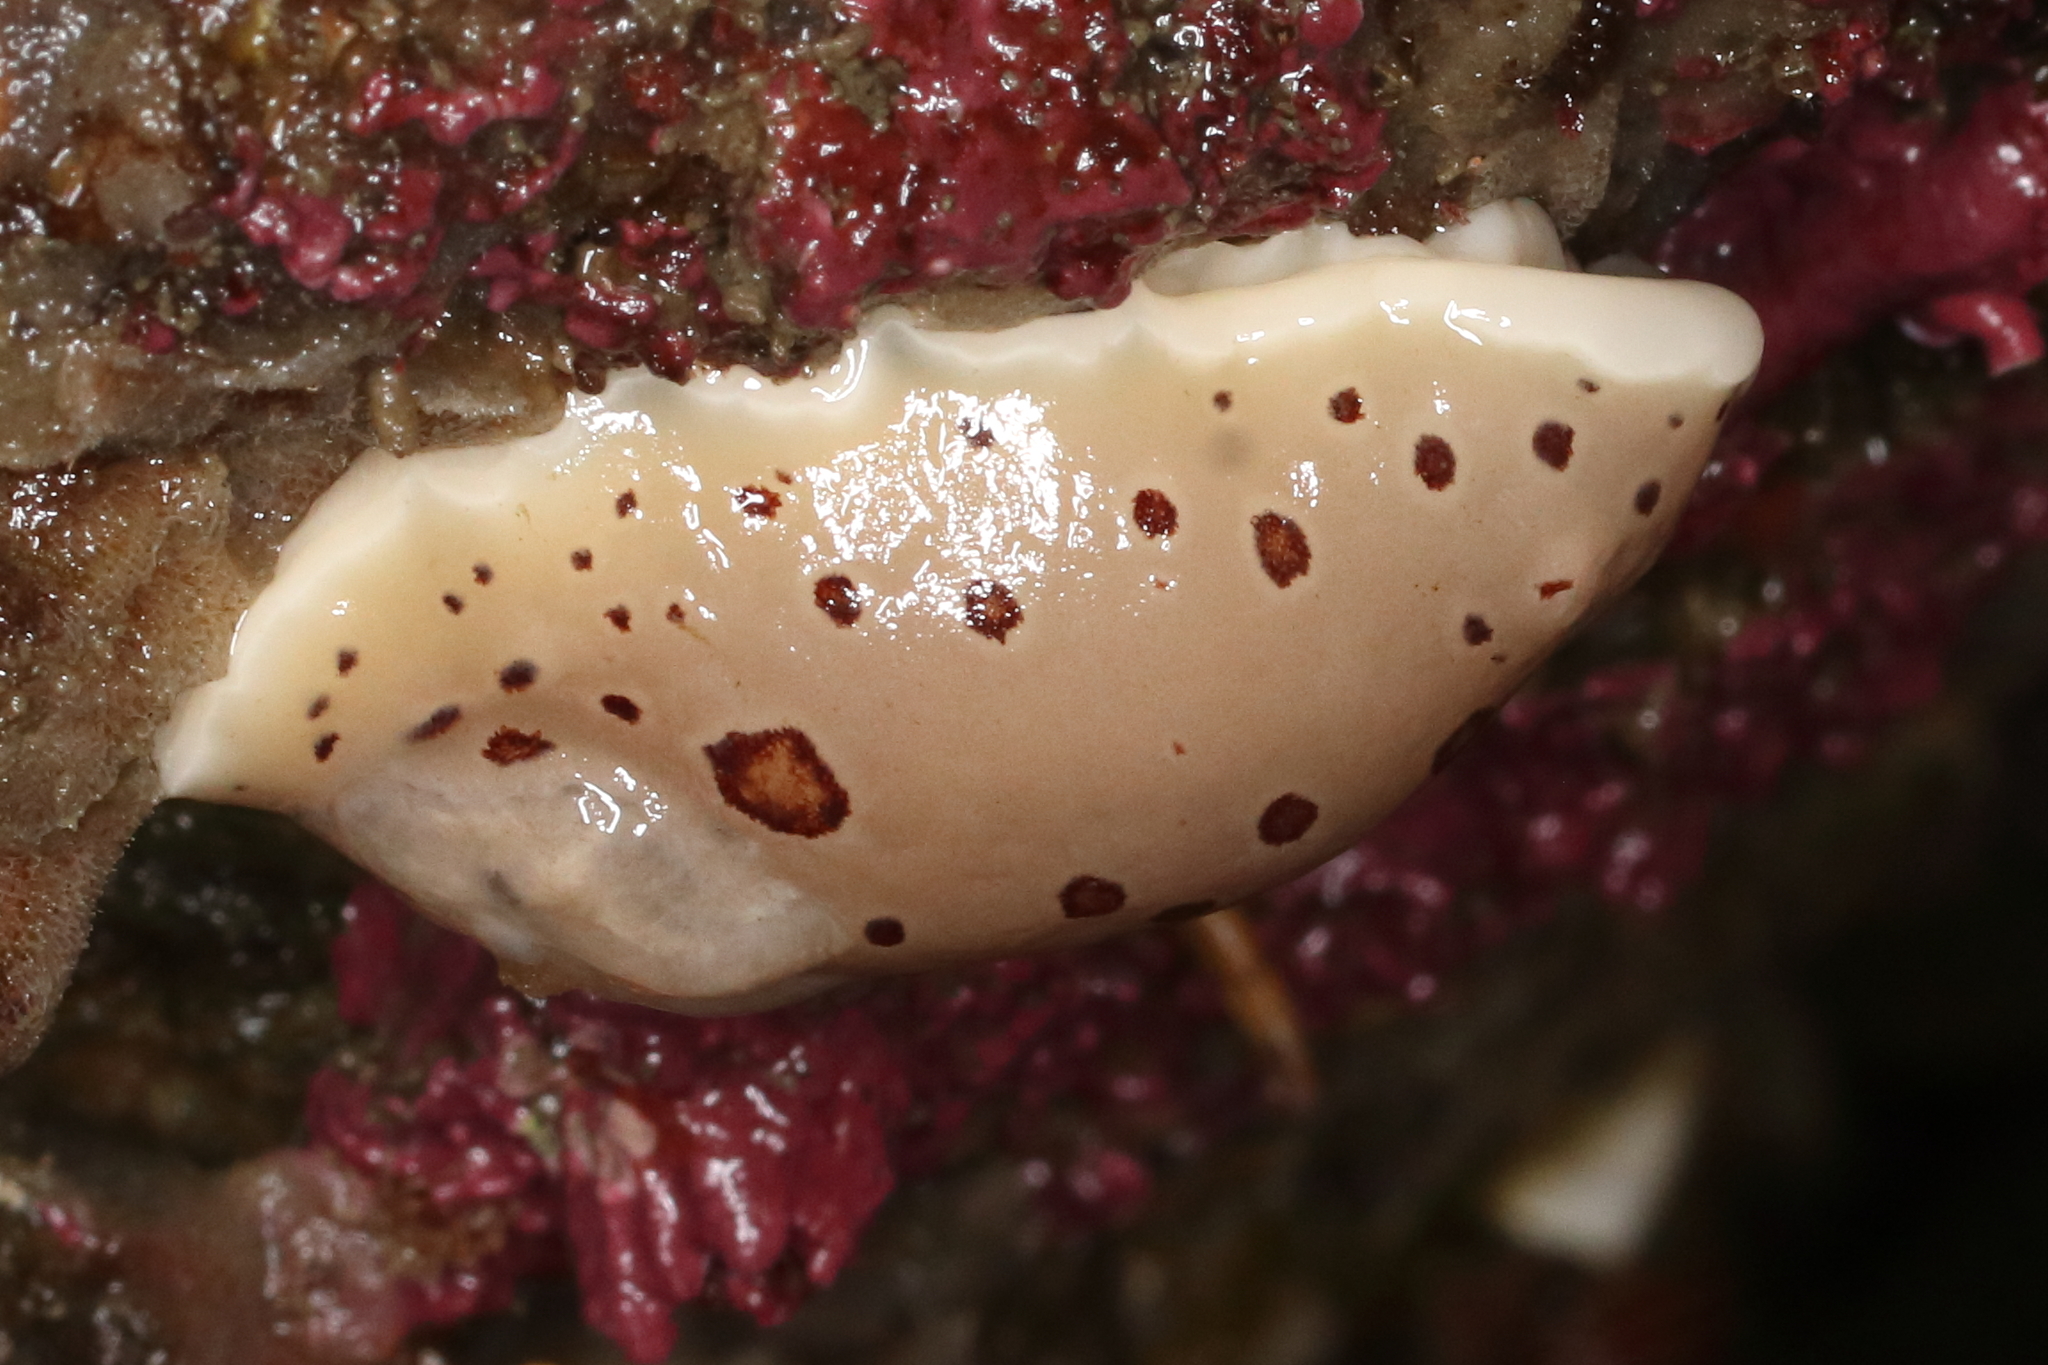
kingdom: Animalia
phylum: Mollusca
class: Gastropoda
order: Nudibranchia
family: Discodorididae
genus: Diaulula
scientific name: Diaulula odonoghuei
